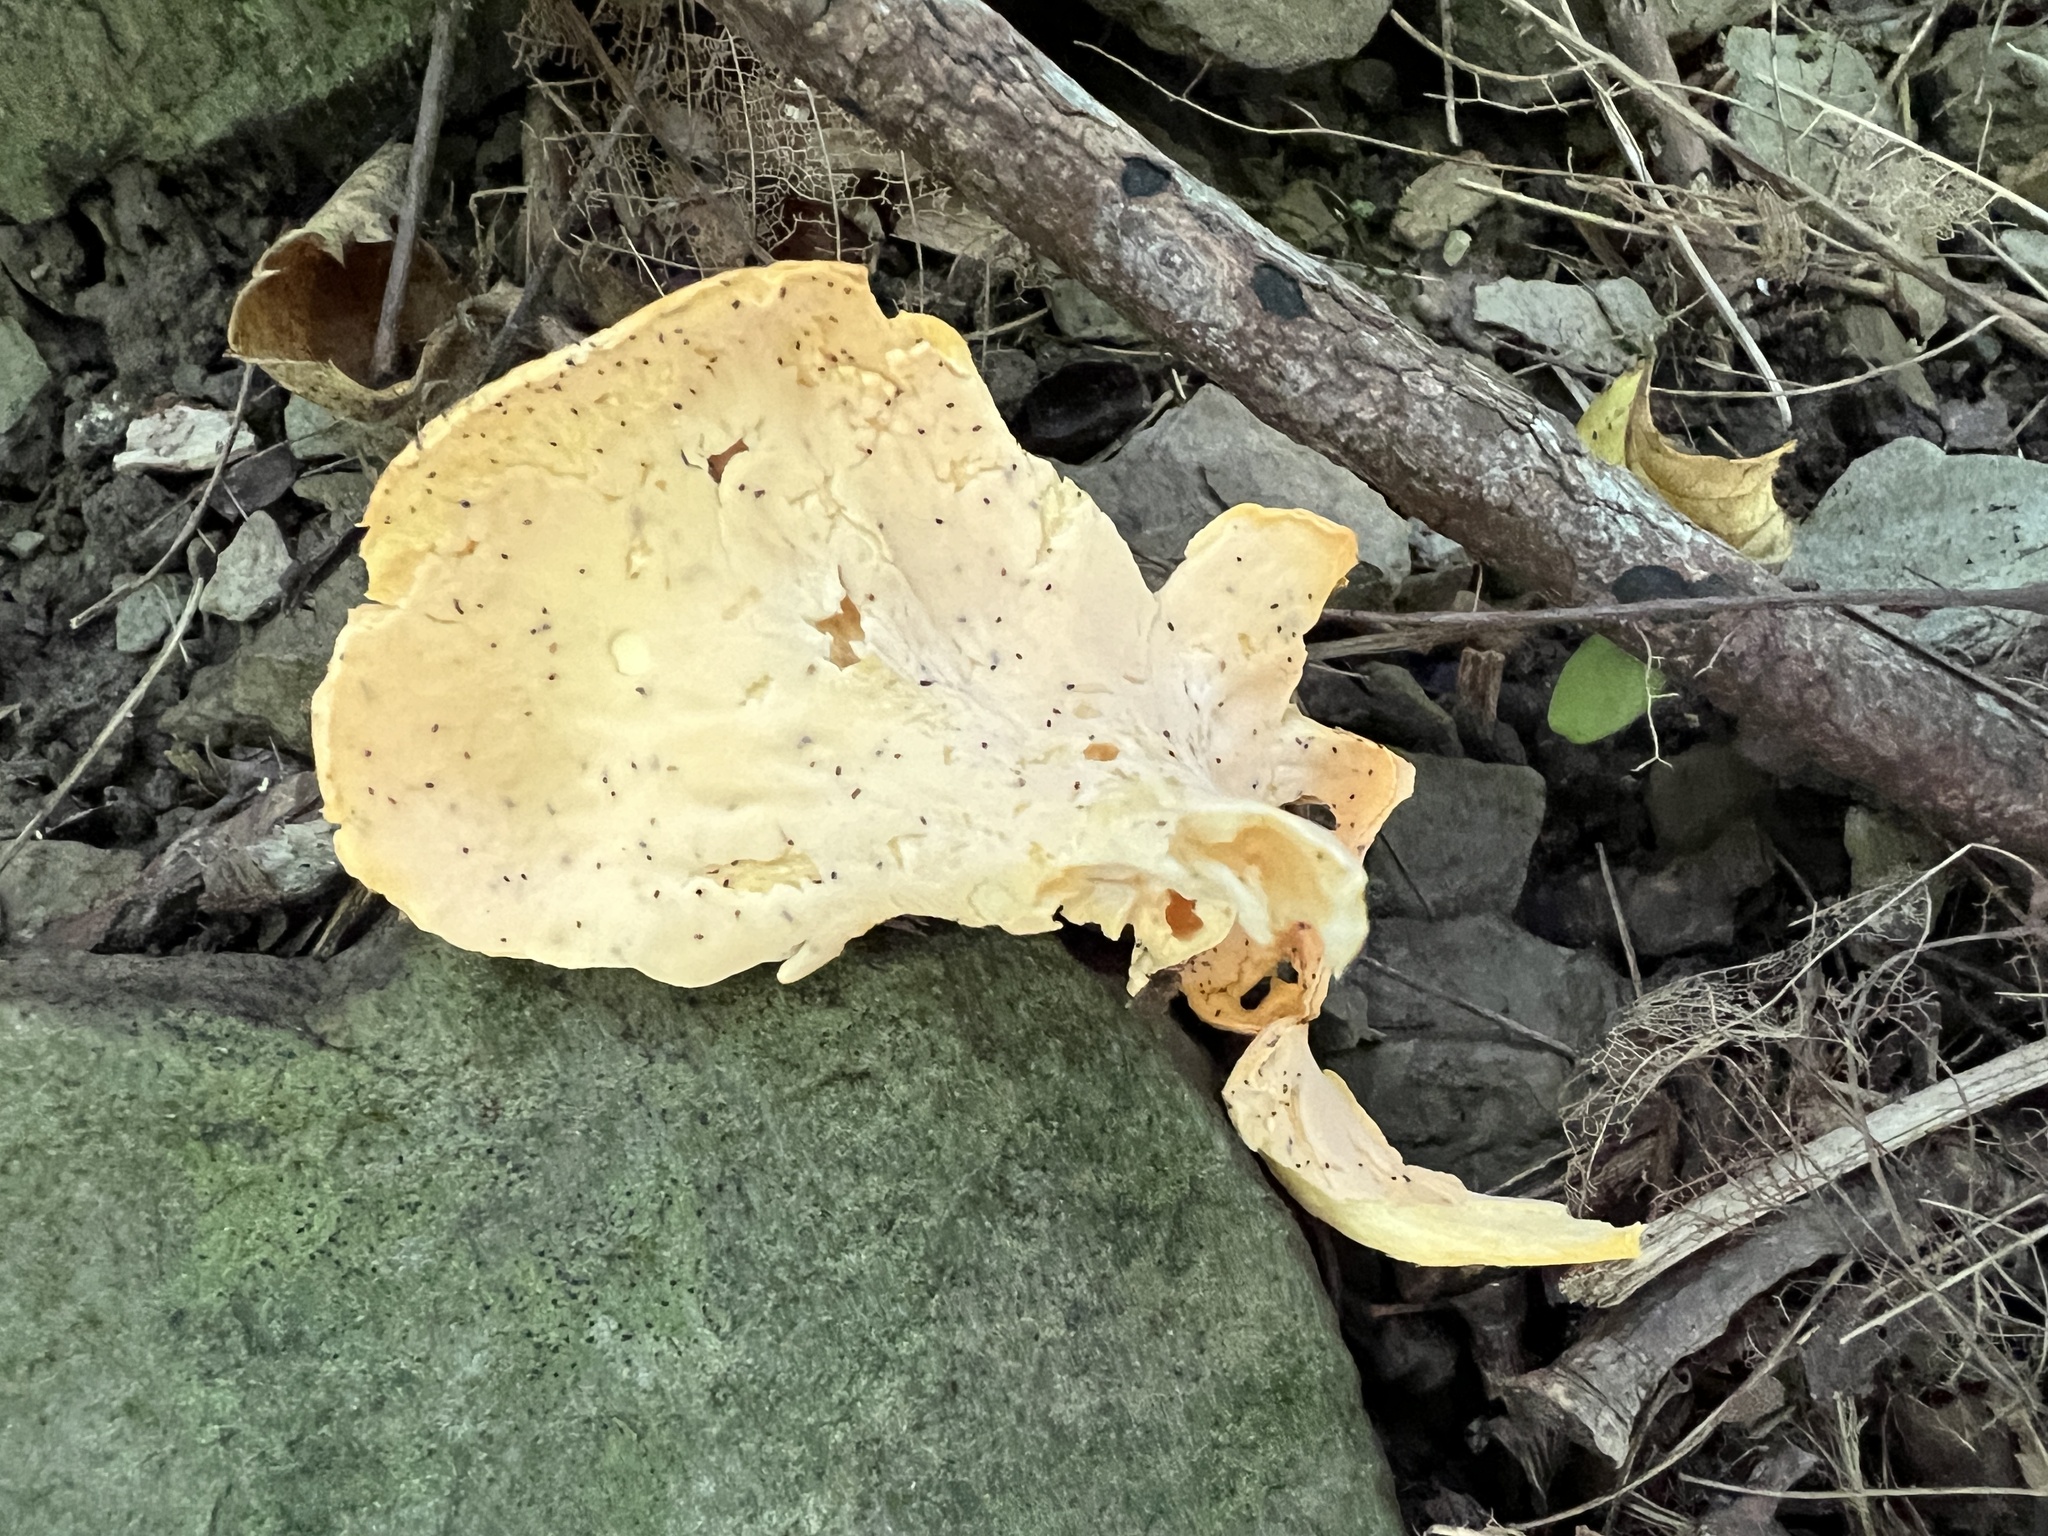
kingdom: Fungi
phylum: Basidiomycota
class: Agaricomycetes
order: Cantharellales
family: Hydnaceae
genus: Cantharellus
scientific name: Cantharellus flavolateritius
